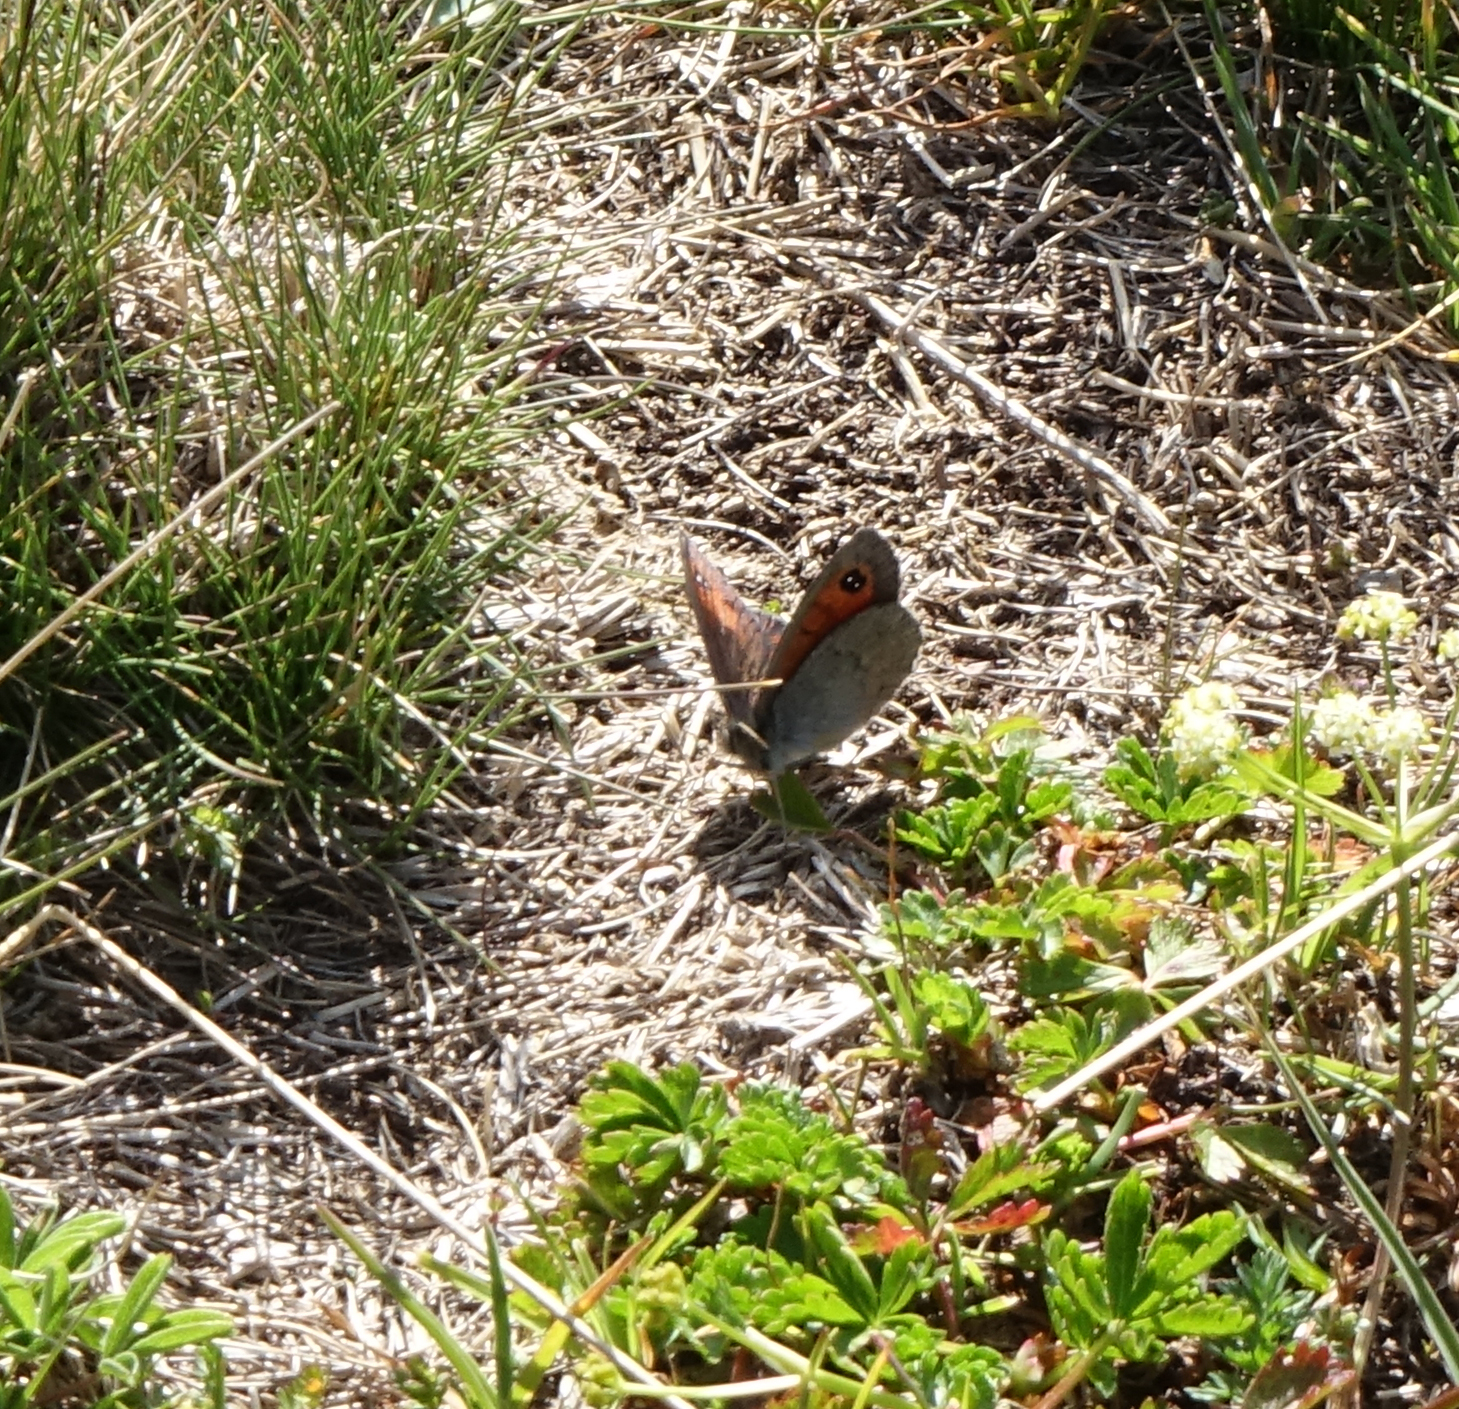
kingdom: Animalia
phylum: Arthropoda
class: Insecta
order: Lepidoptera
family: Nymphalidae
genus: Erebia
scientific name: Erebia iranica
